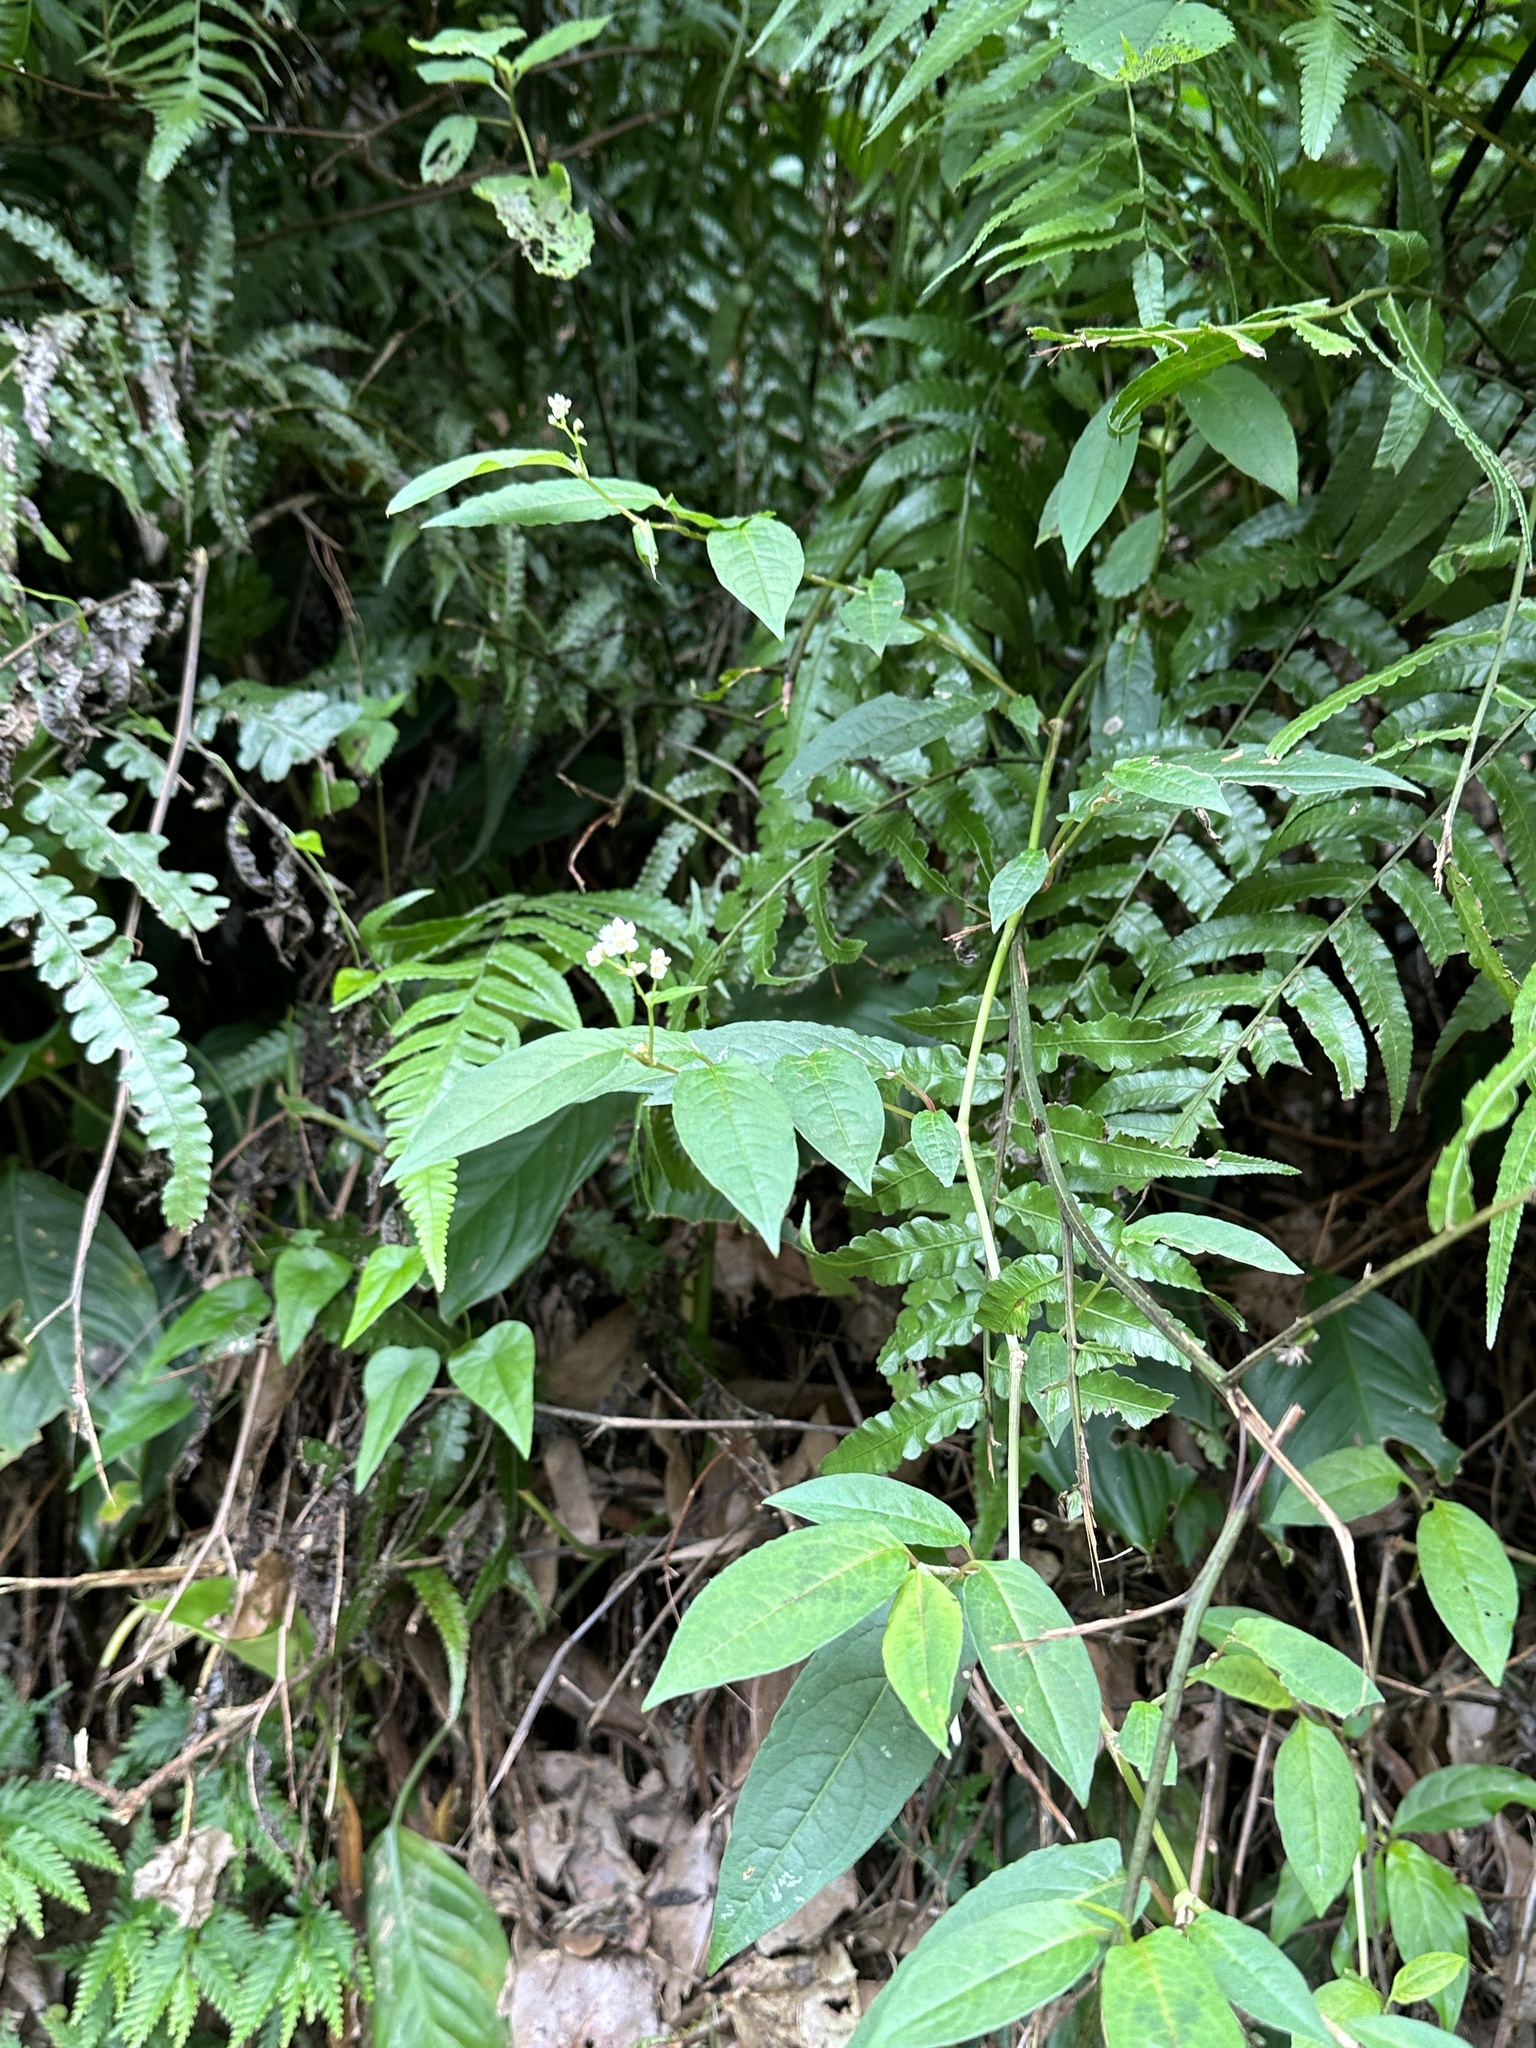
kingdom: Plantae
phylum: Tracheophyta
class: Magnoliopsida
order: Caryophyllales
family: Polygonaceae
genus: Persicaria
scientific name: Persicaria chinensis
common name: Chinese knotweed
